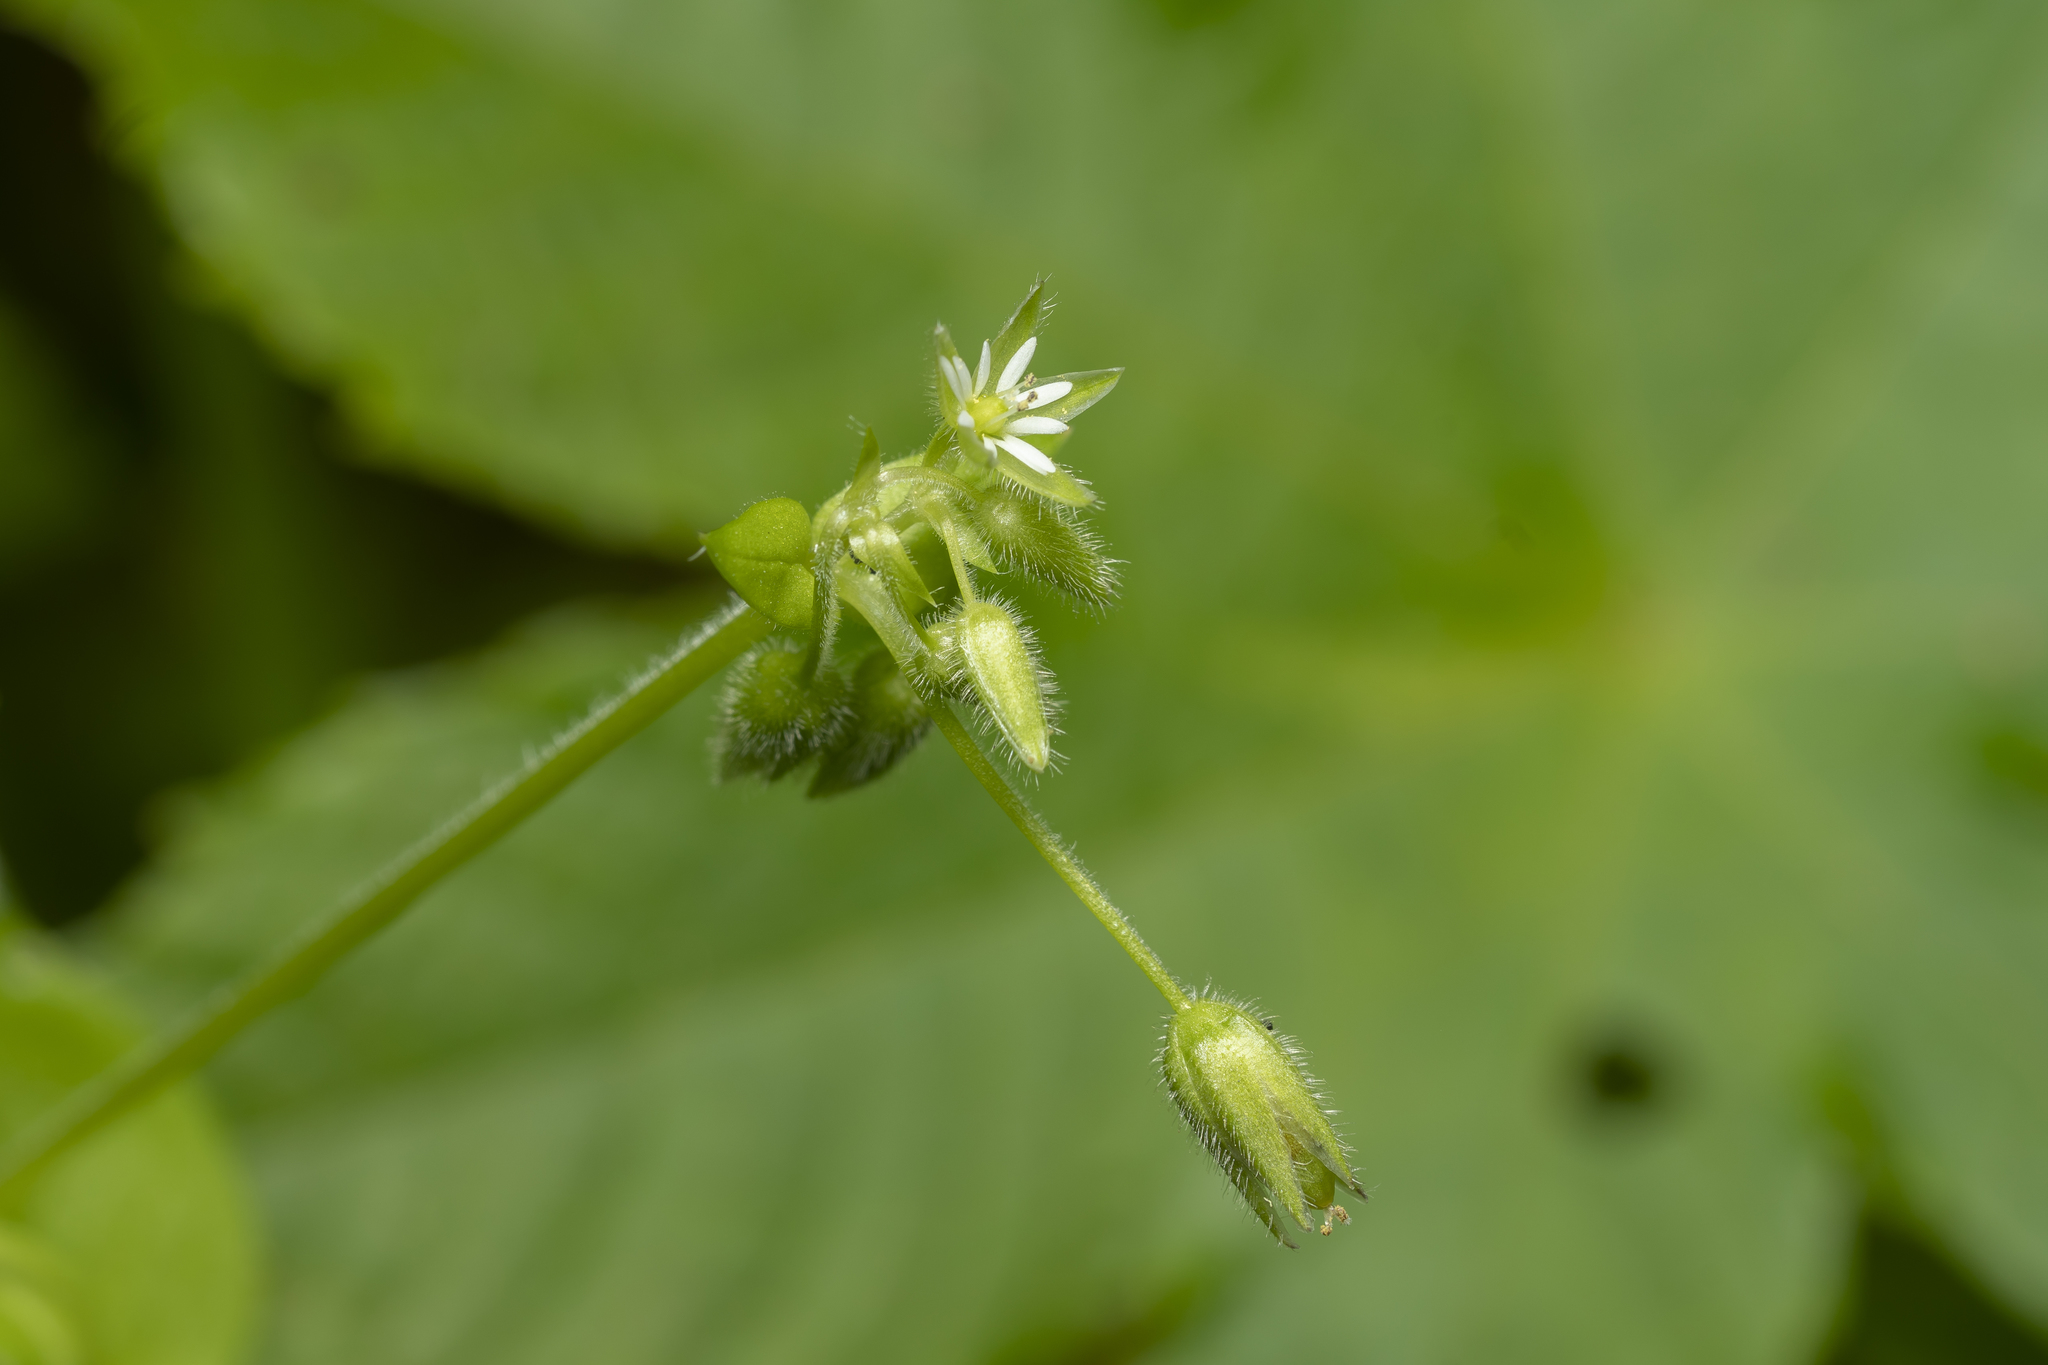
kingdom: Plantae
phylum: Tracheophyta
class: Magnoliopsida
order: Caryophyllales
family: Caryophyllaceae
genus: Stellaria
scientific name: Stellaria media
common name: Common chickweed
